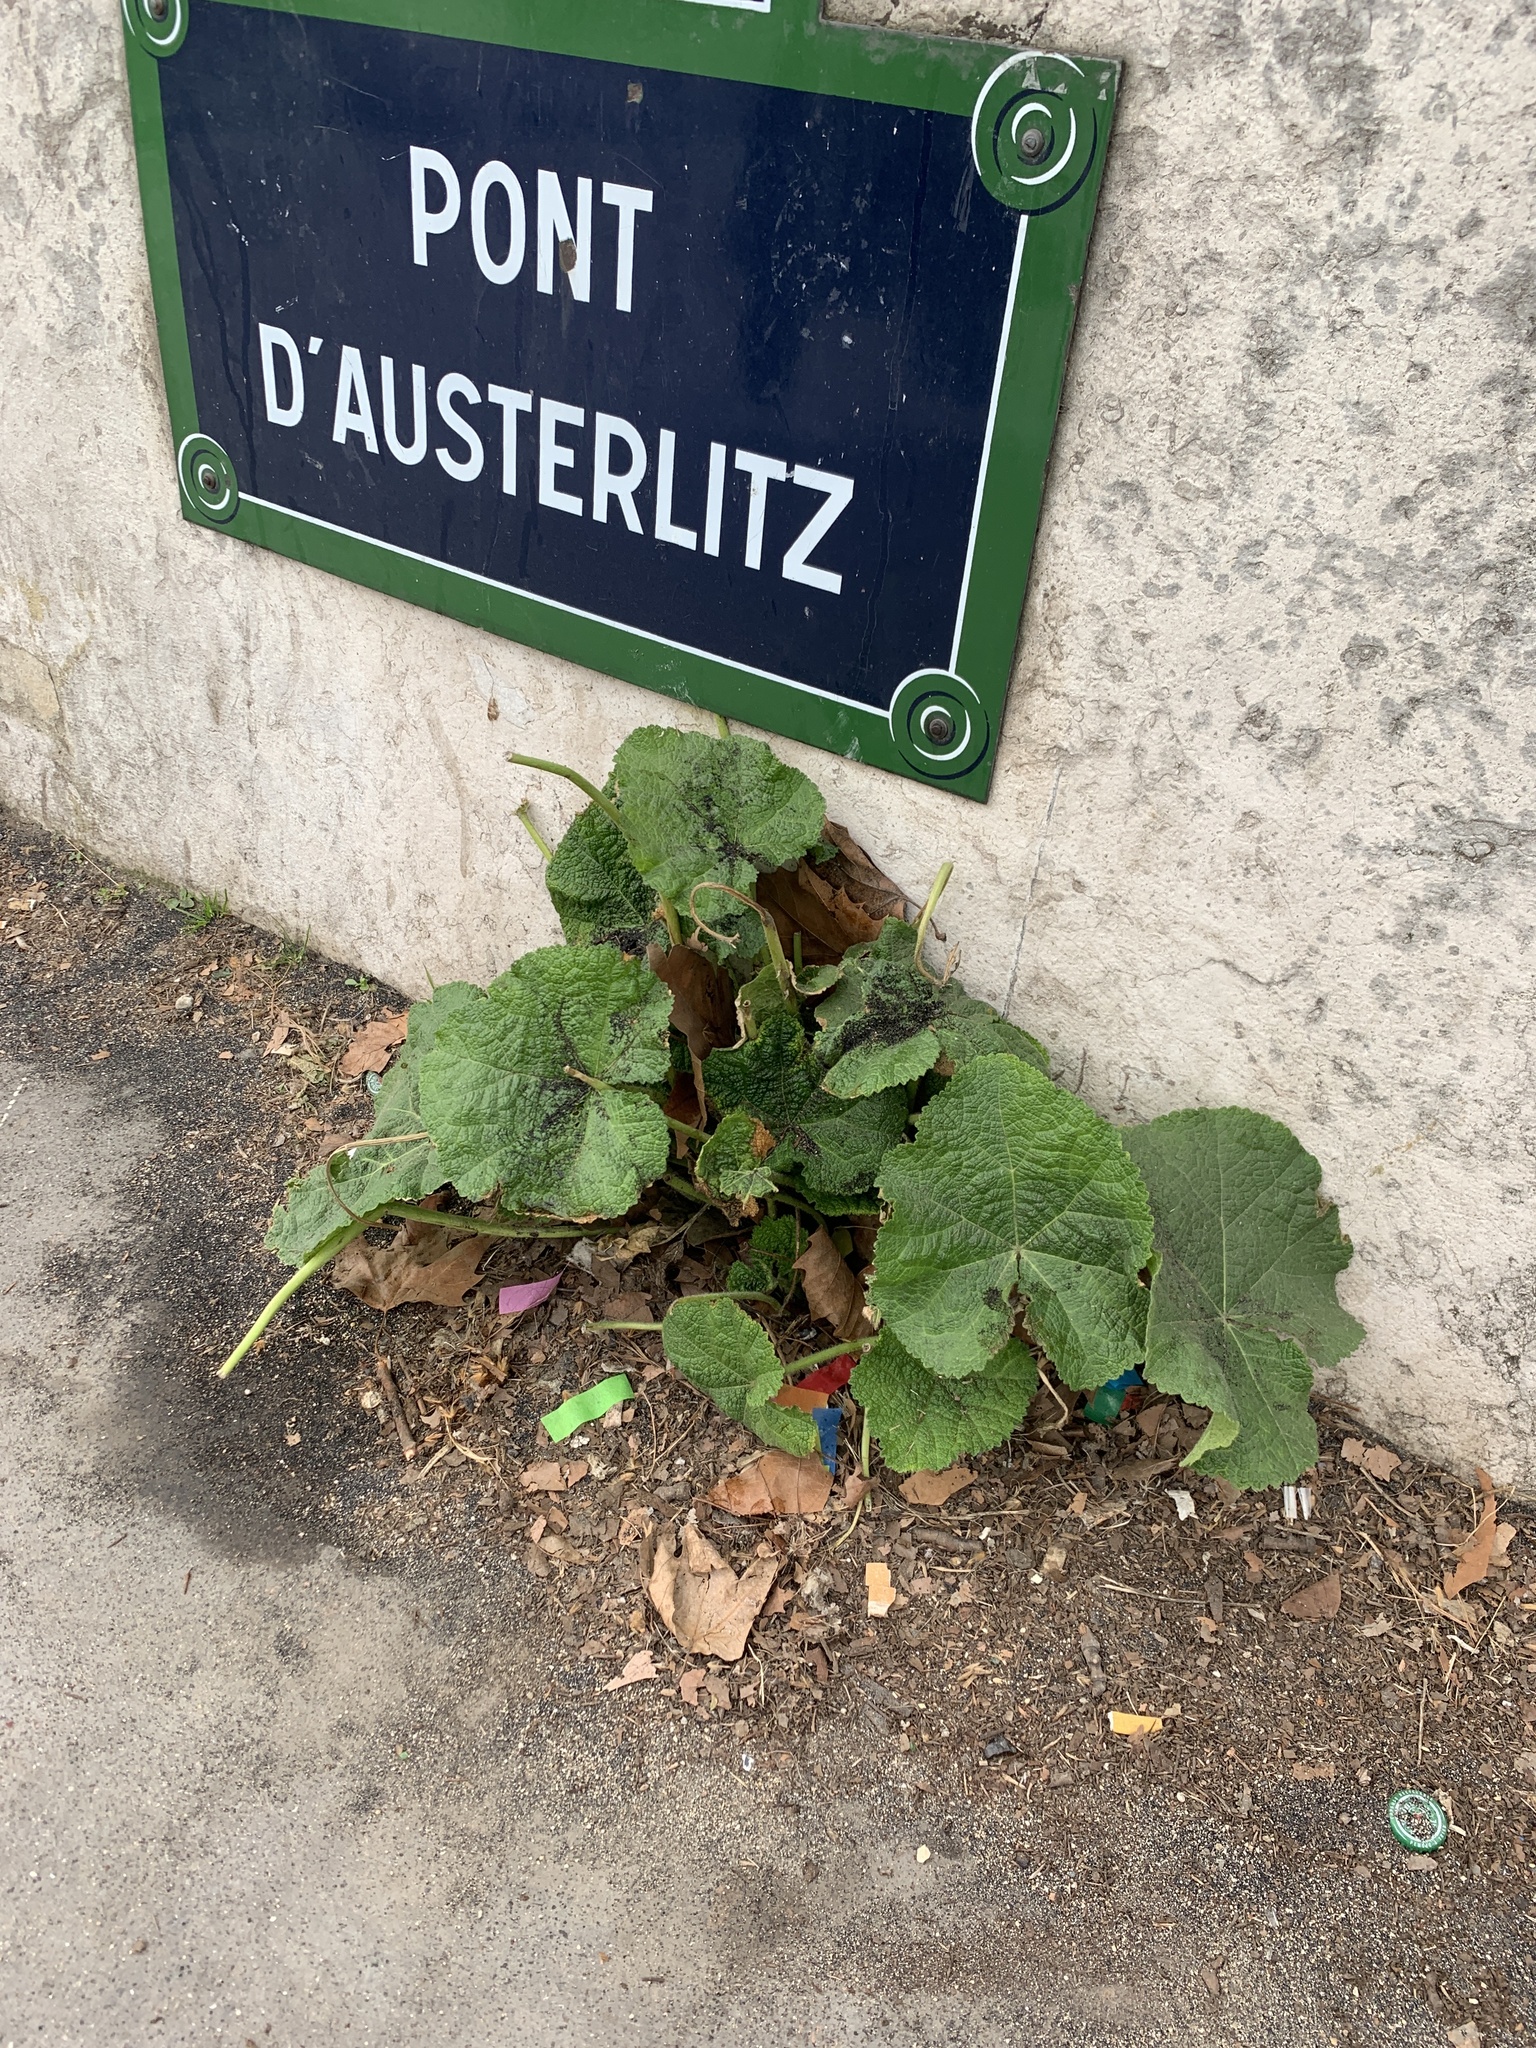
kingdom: Plantae
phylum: Tracheophyta
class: Magnoliopsida
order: Malvales
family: Malvaceae
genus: Alcea
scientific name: Alcea rosea
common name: Hollyhock
